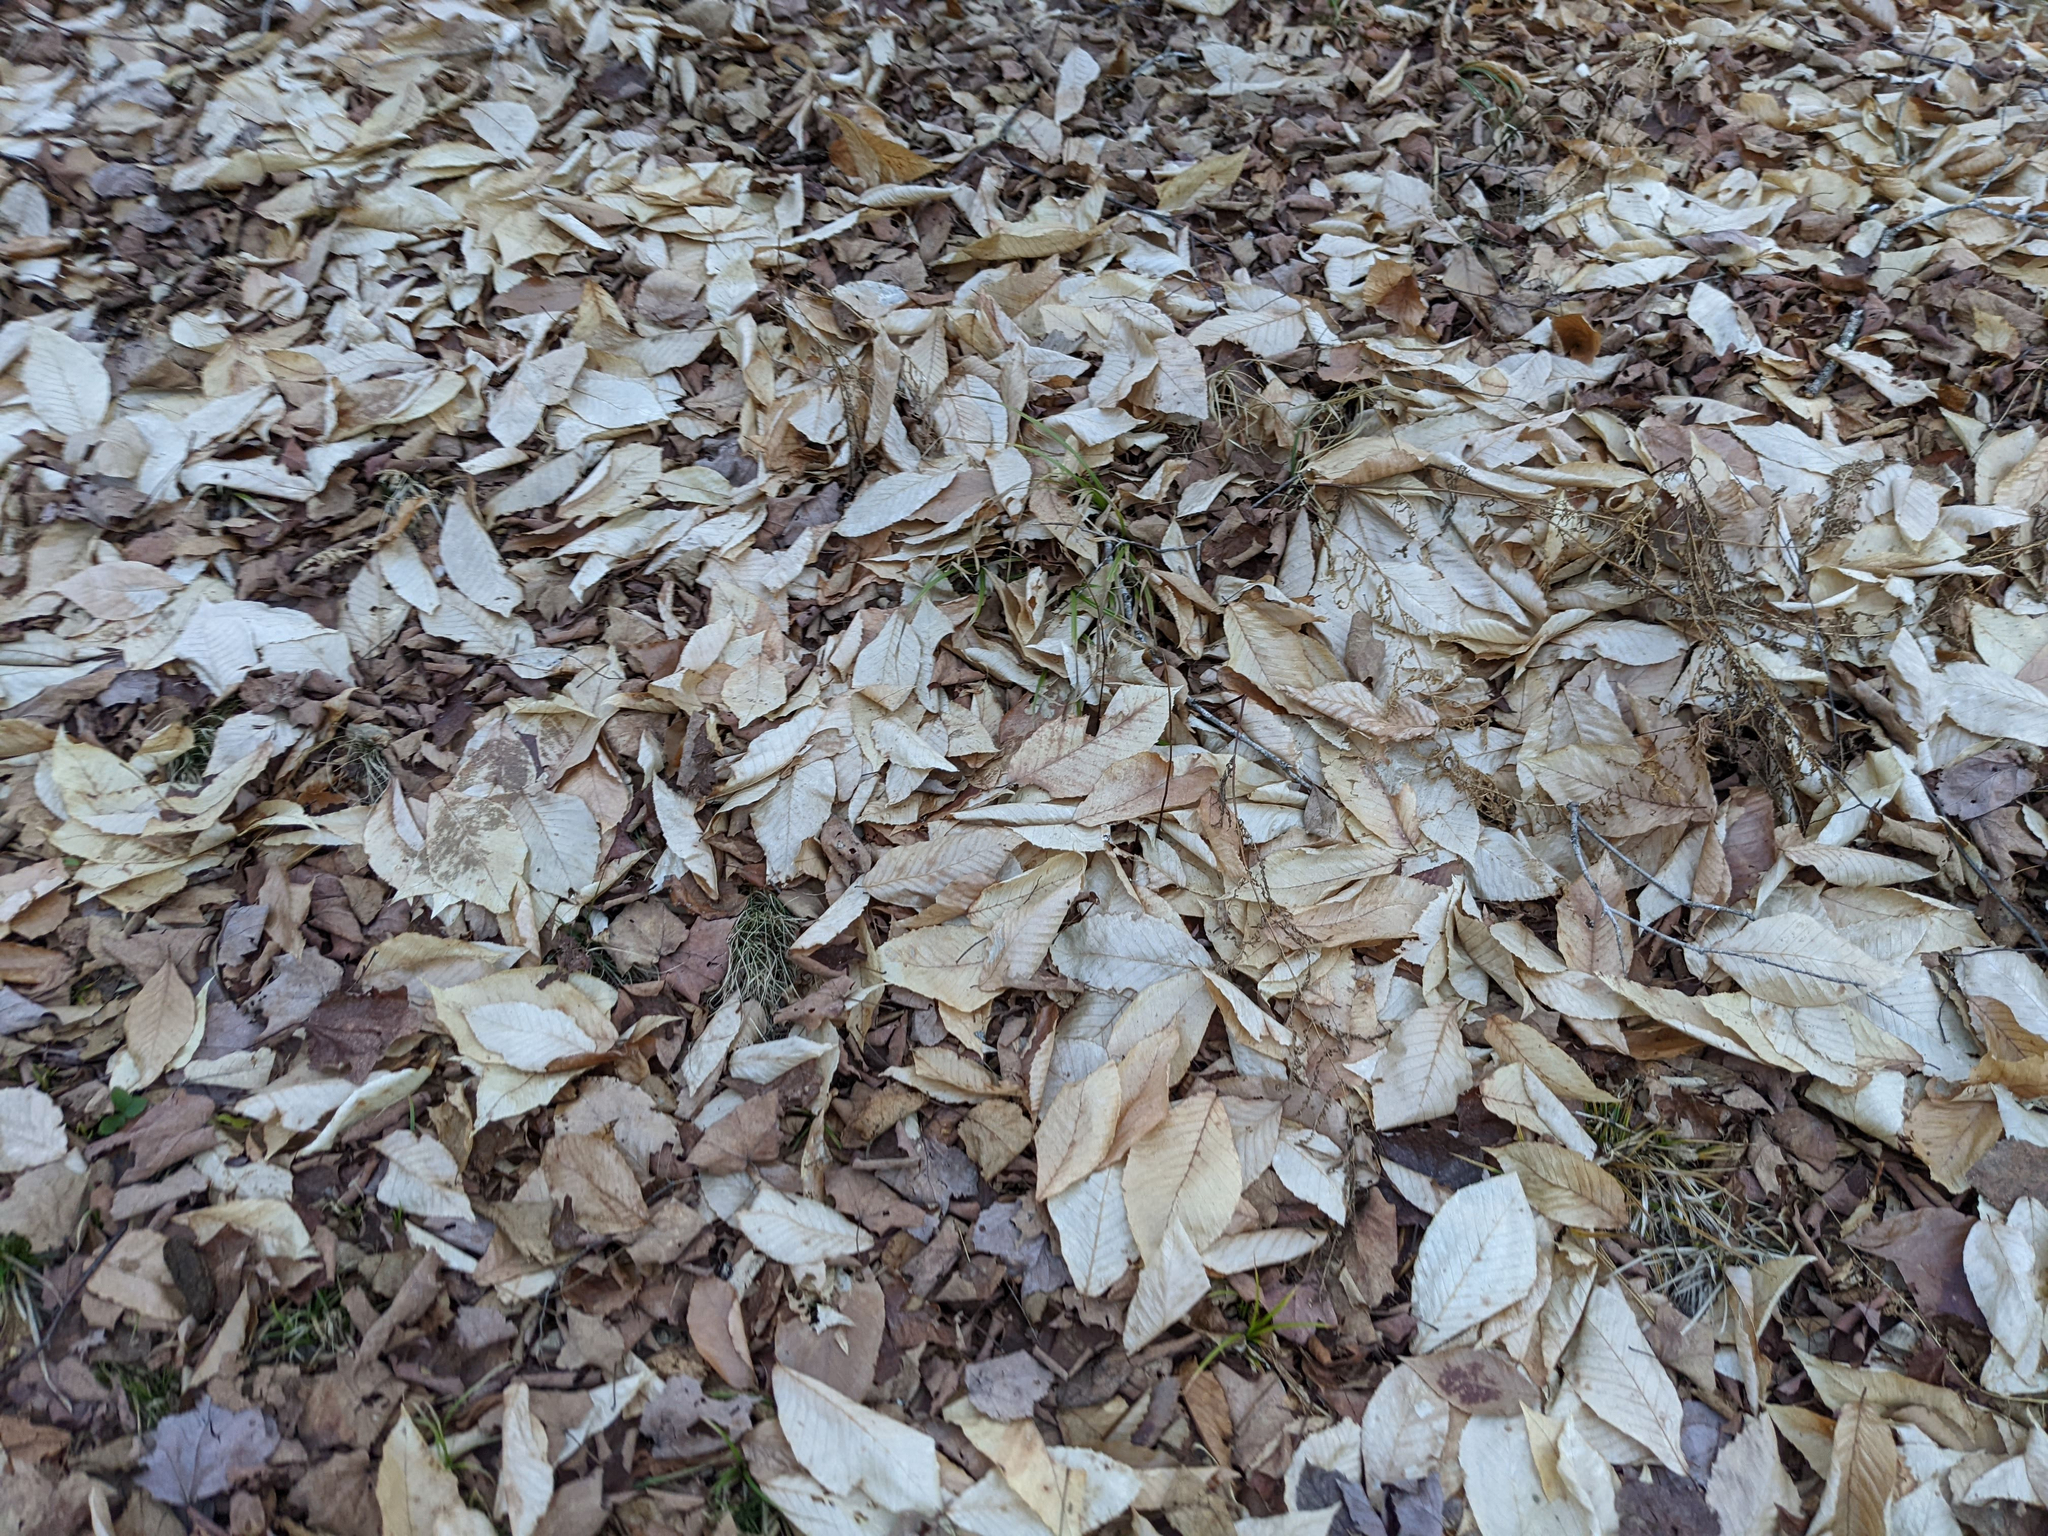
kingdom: Plantae
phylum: Tracheophyta
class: Magnoliopsida
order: Fagales
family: Fagaceae
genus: Fagus
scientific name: Fagus grandifolia
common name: American beech
